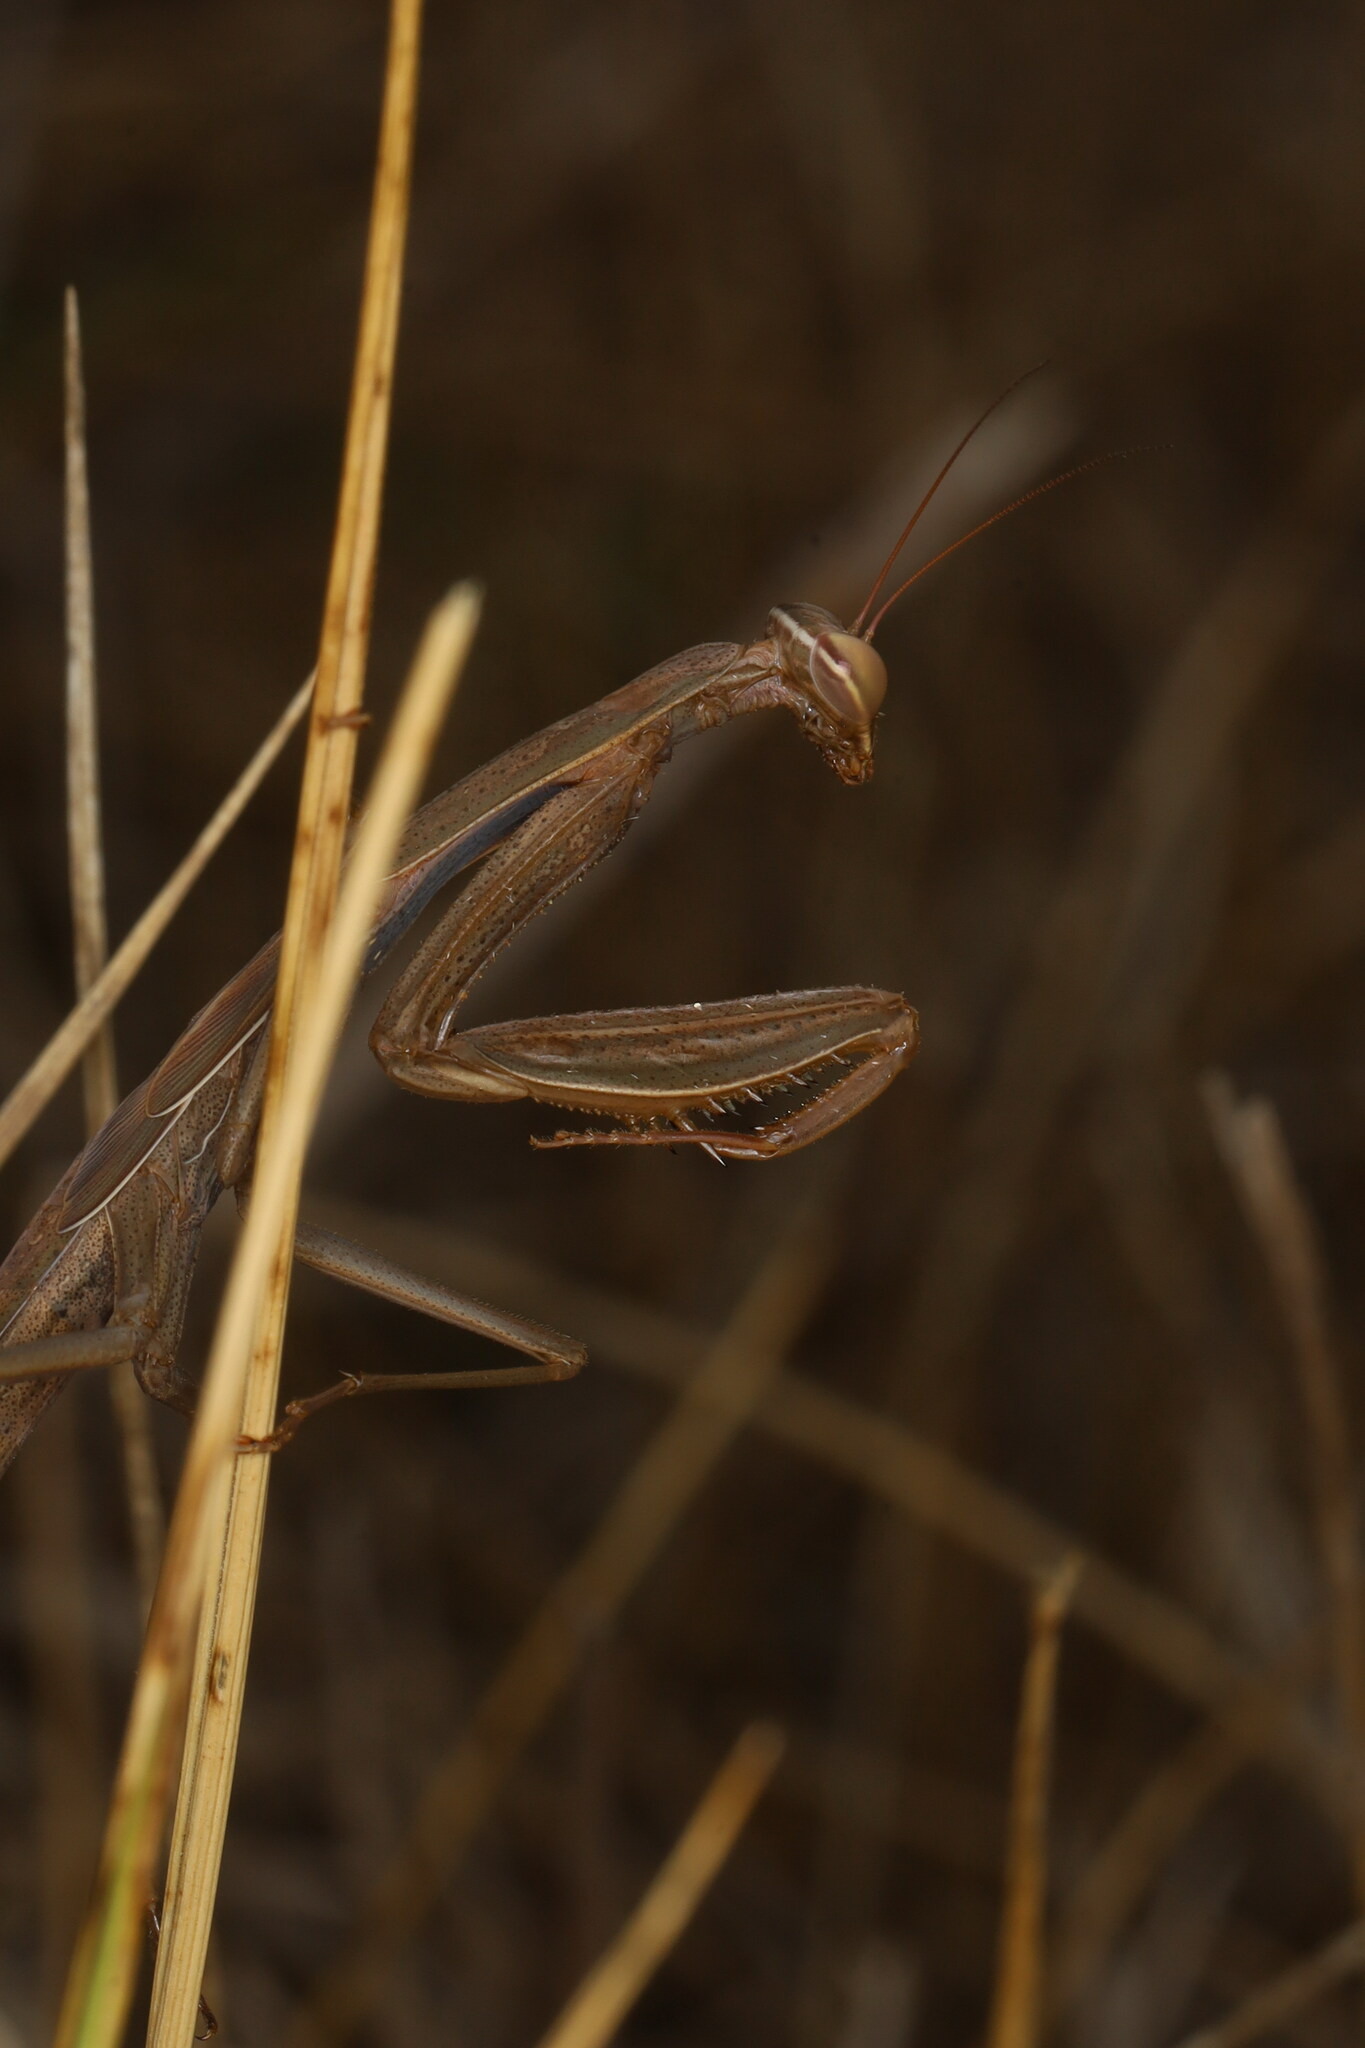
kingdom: Animalia
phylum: Arthropoda
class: Insecta
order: Mantodea
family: Mantidae
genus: Mantis
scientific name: Mantis religiosa
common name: Praying mantis
